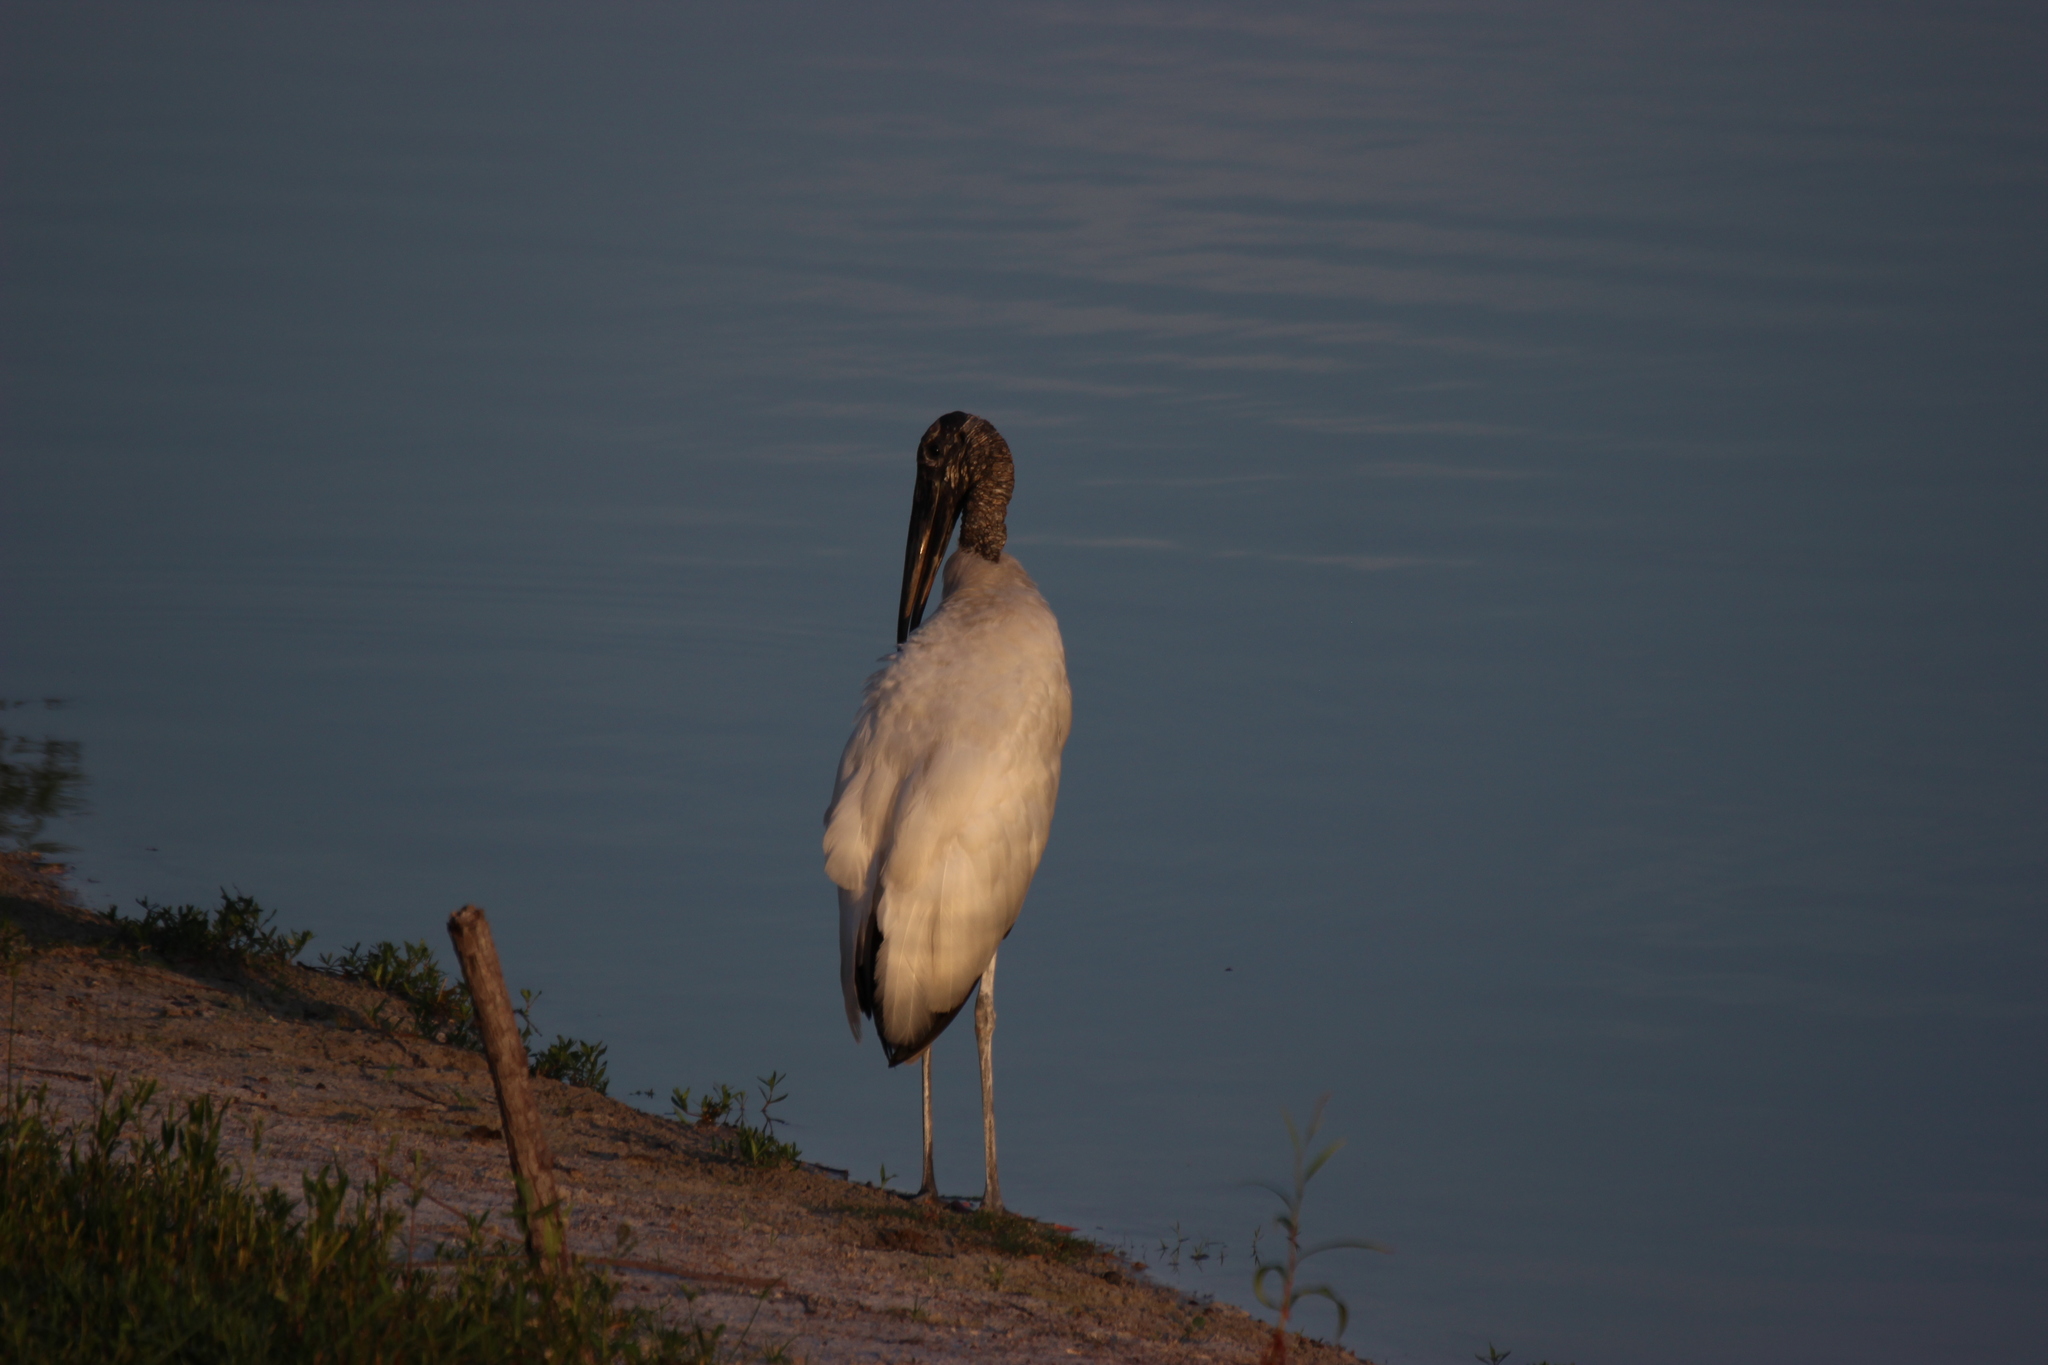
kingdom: Animalia
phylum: Chordata
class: Aves
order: Ciconiiformes
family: Ciconiidae
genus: Mycteria
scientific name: Mycteria americana
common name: Wood stork
